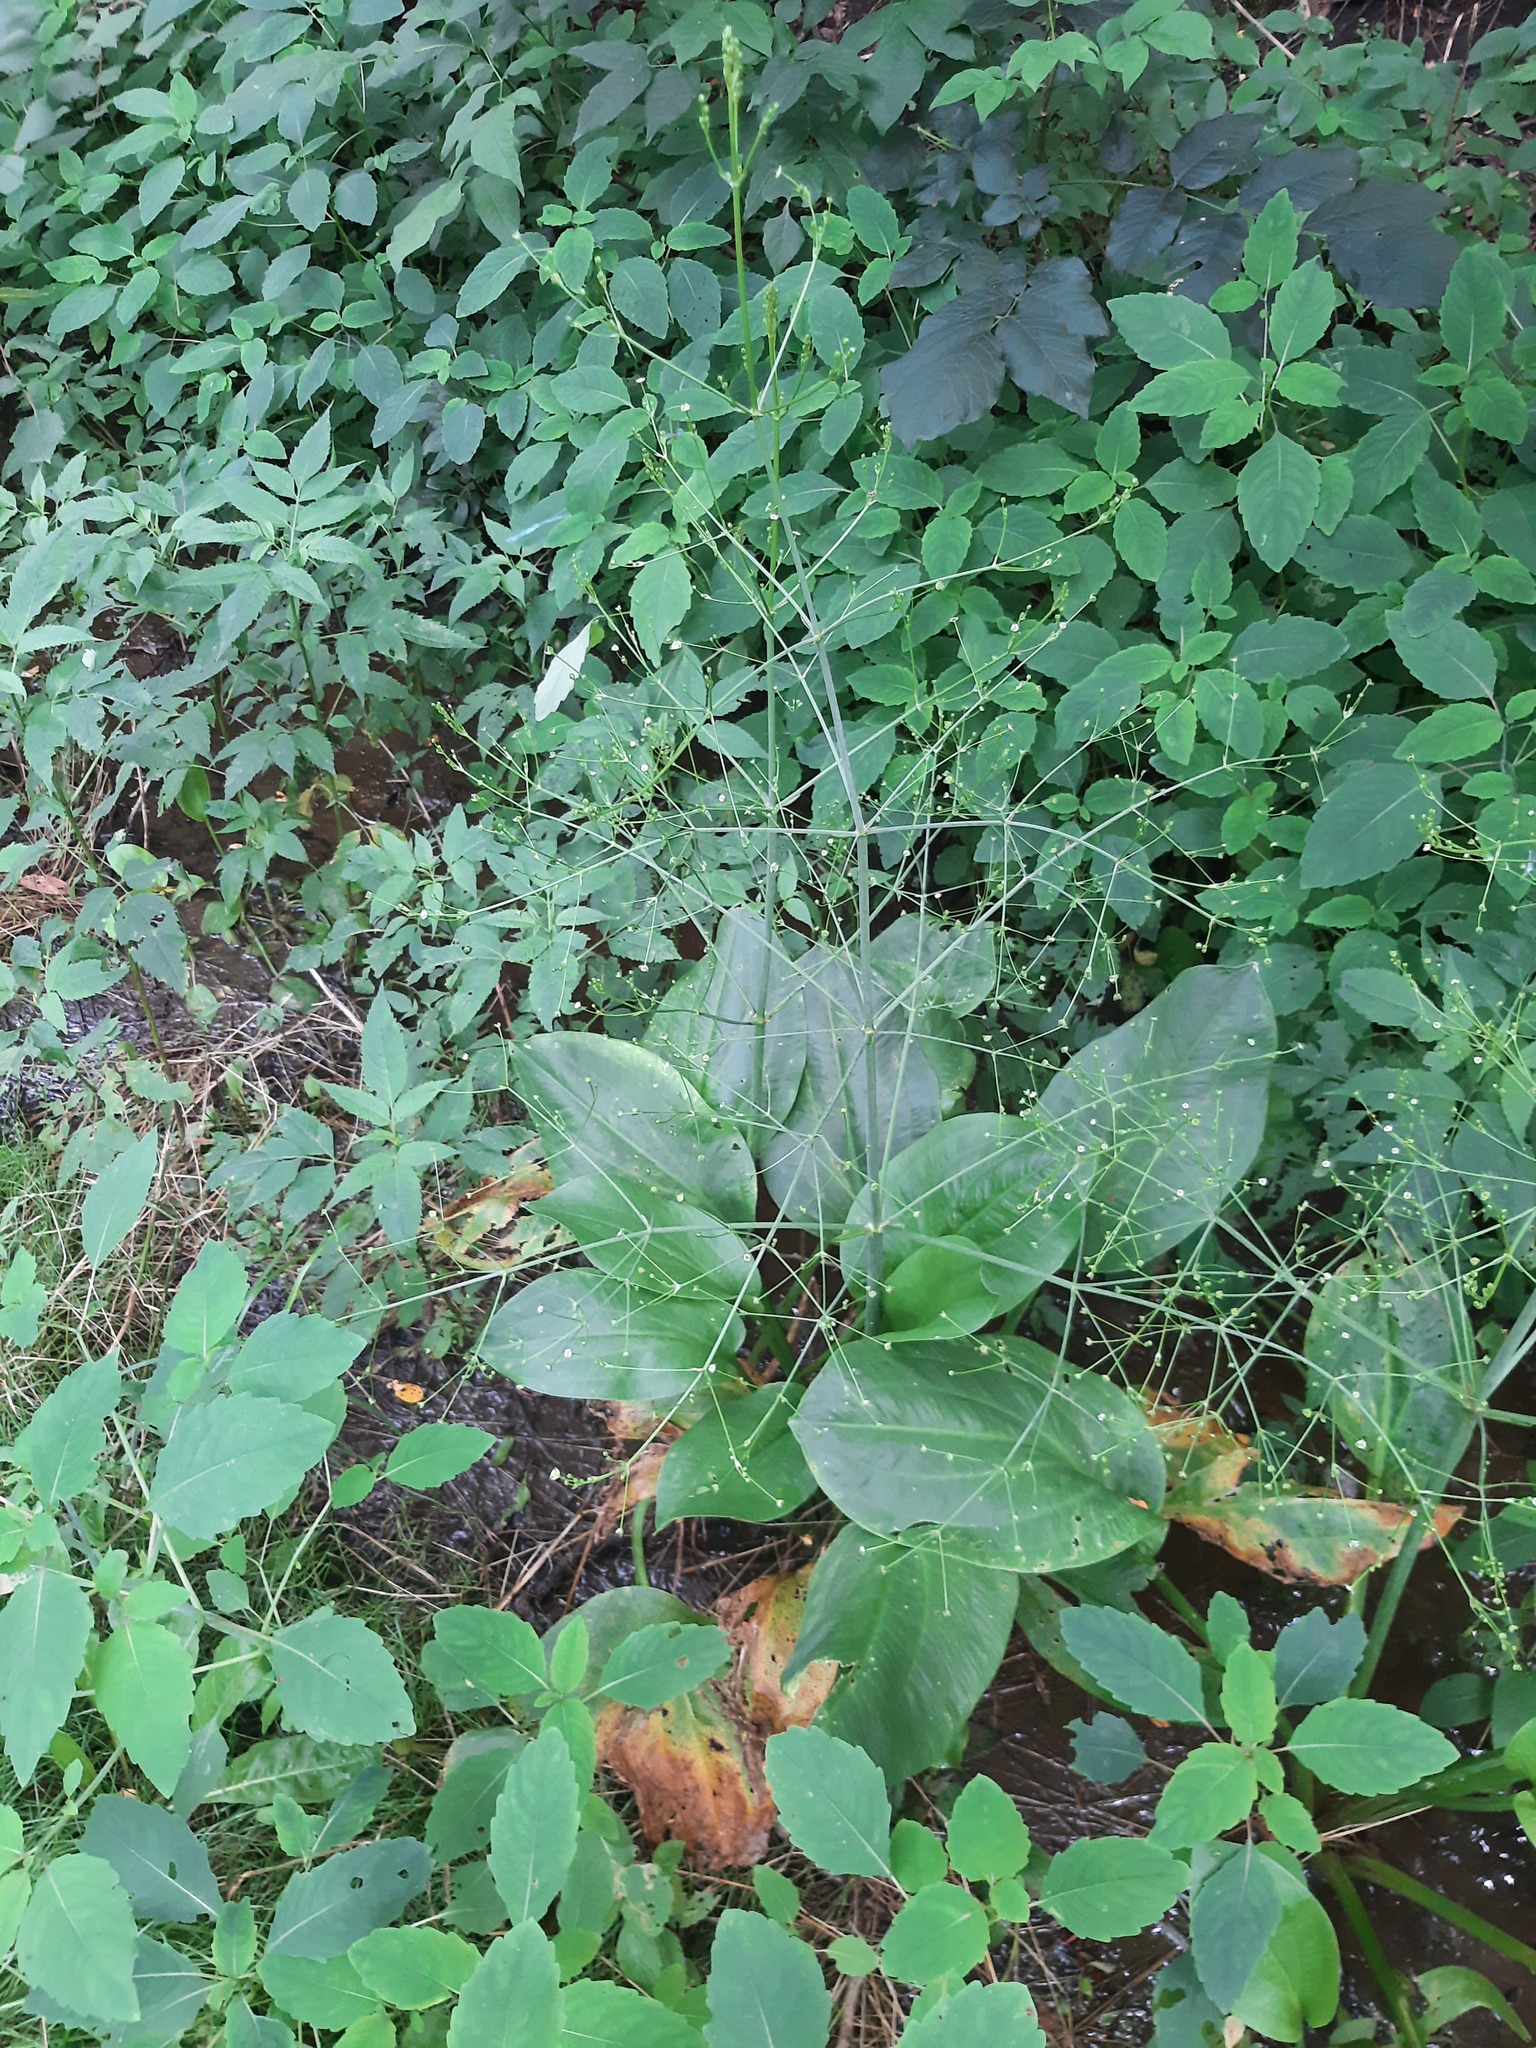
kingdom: Plantae
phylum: Tracheophyta
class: Liliopsida
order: Alismatales
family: Alismataceae
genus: Alisma
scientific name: Alisma triviale
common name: Northern water-plantain
